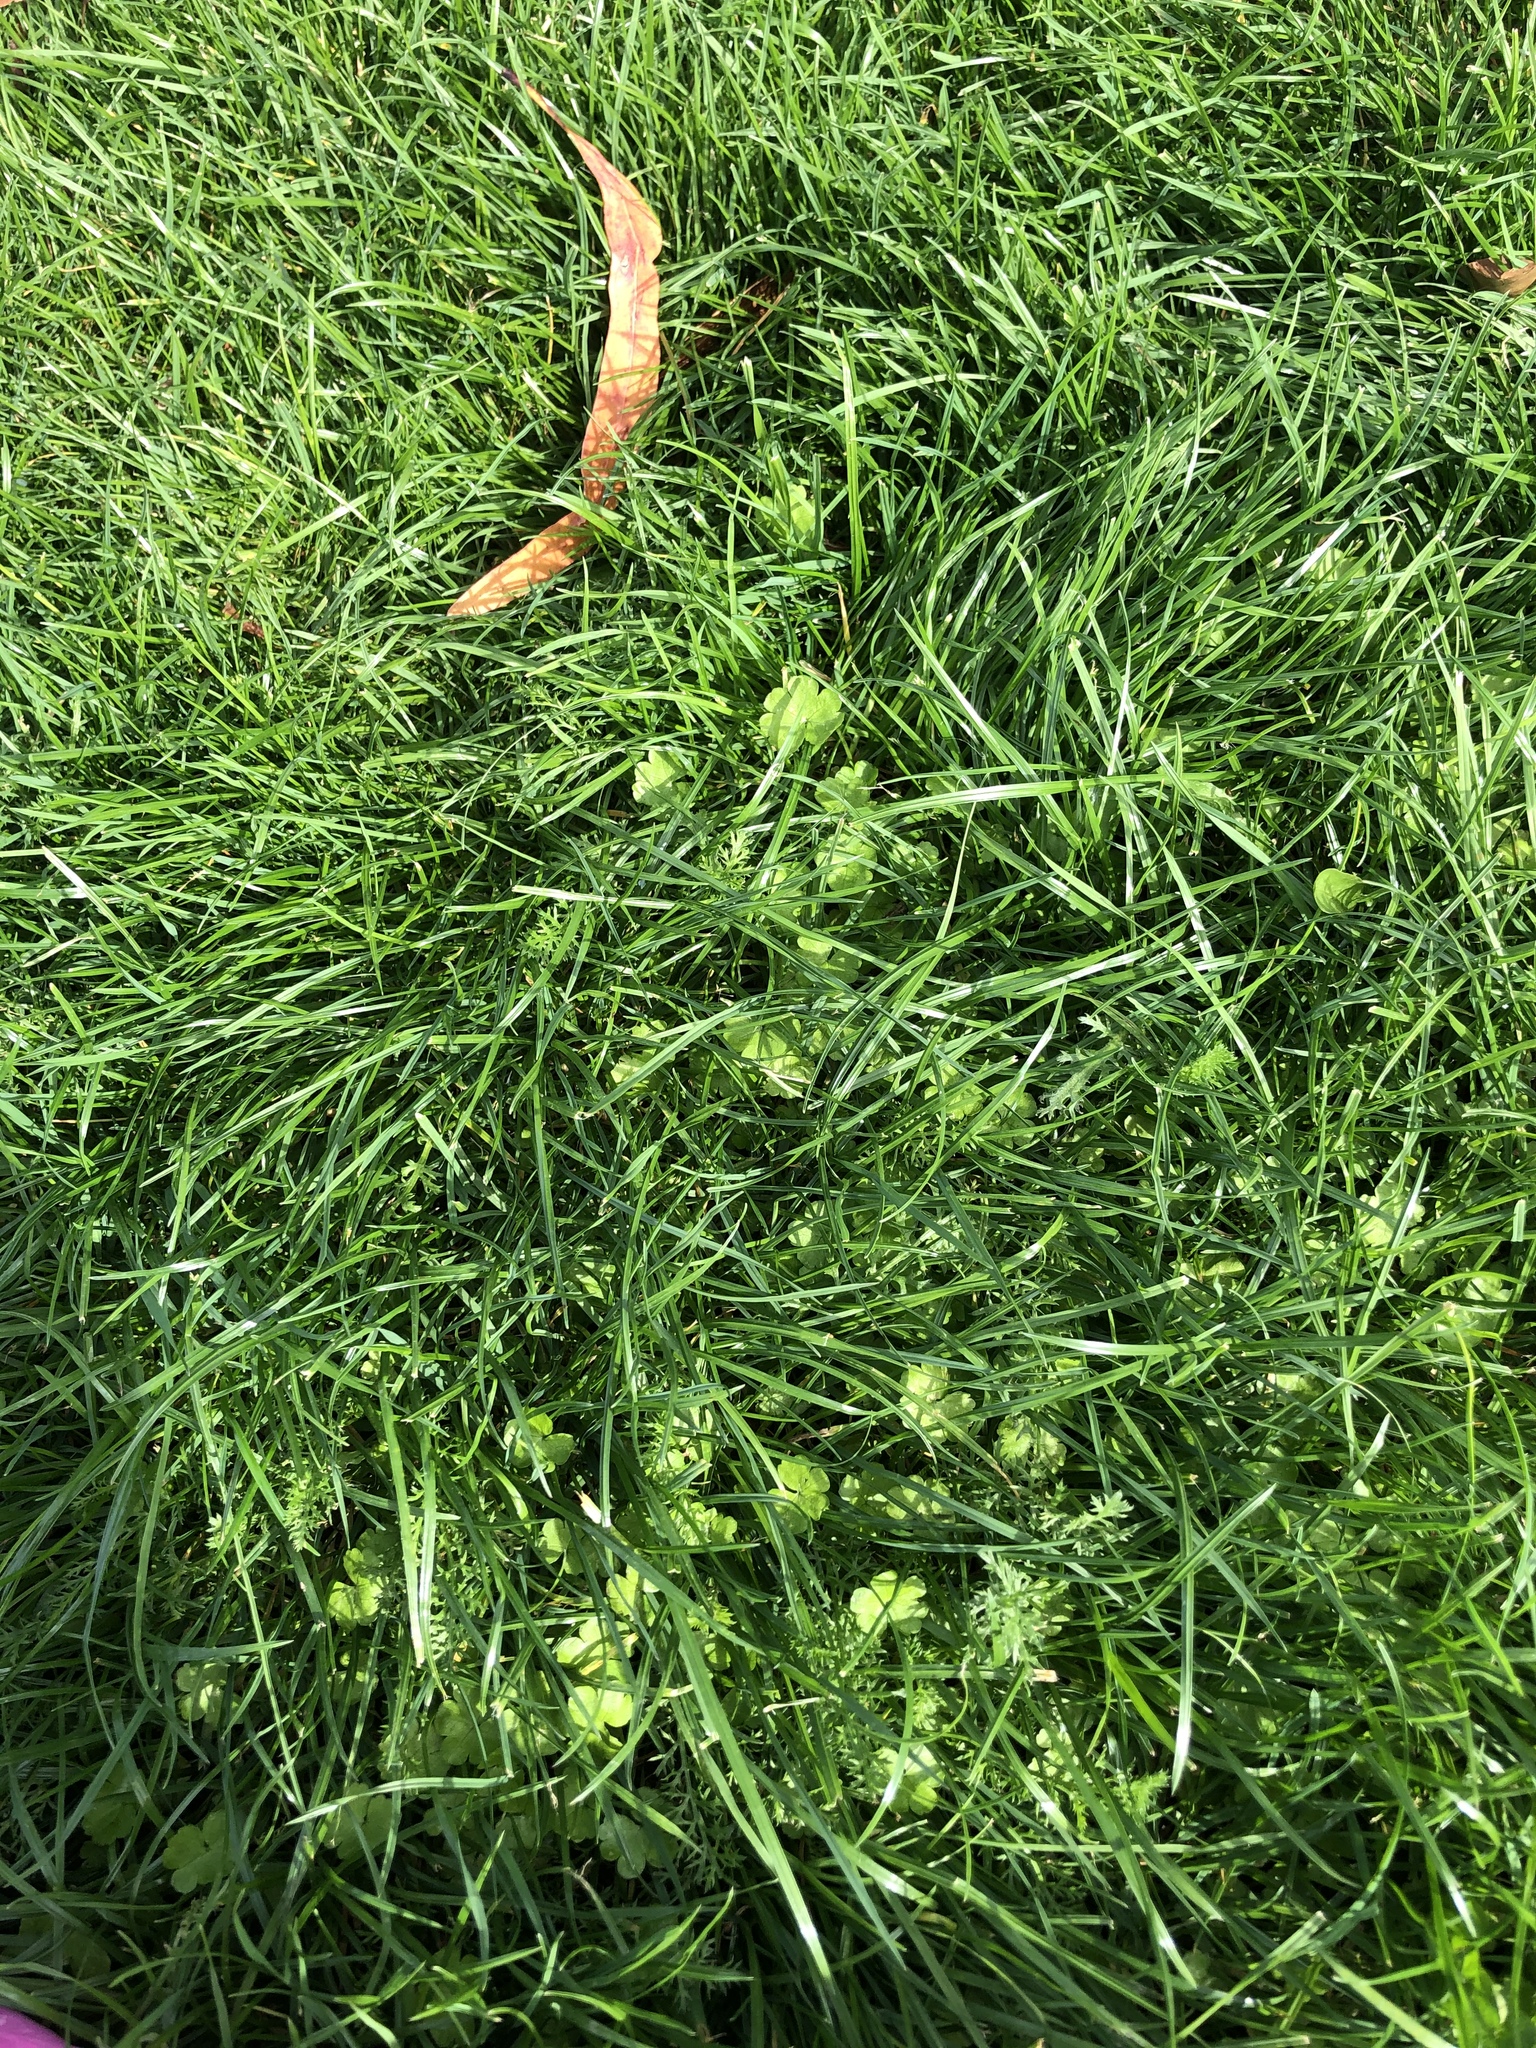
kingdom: Plantae
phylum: Tracheophyta
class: Magnoliopsida
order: Apiales
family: Araliaceae
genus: Hydrocotyle
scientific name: Hydrocotyle heteromeria
